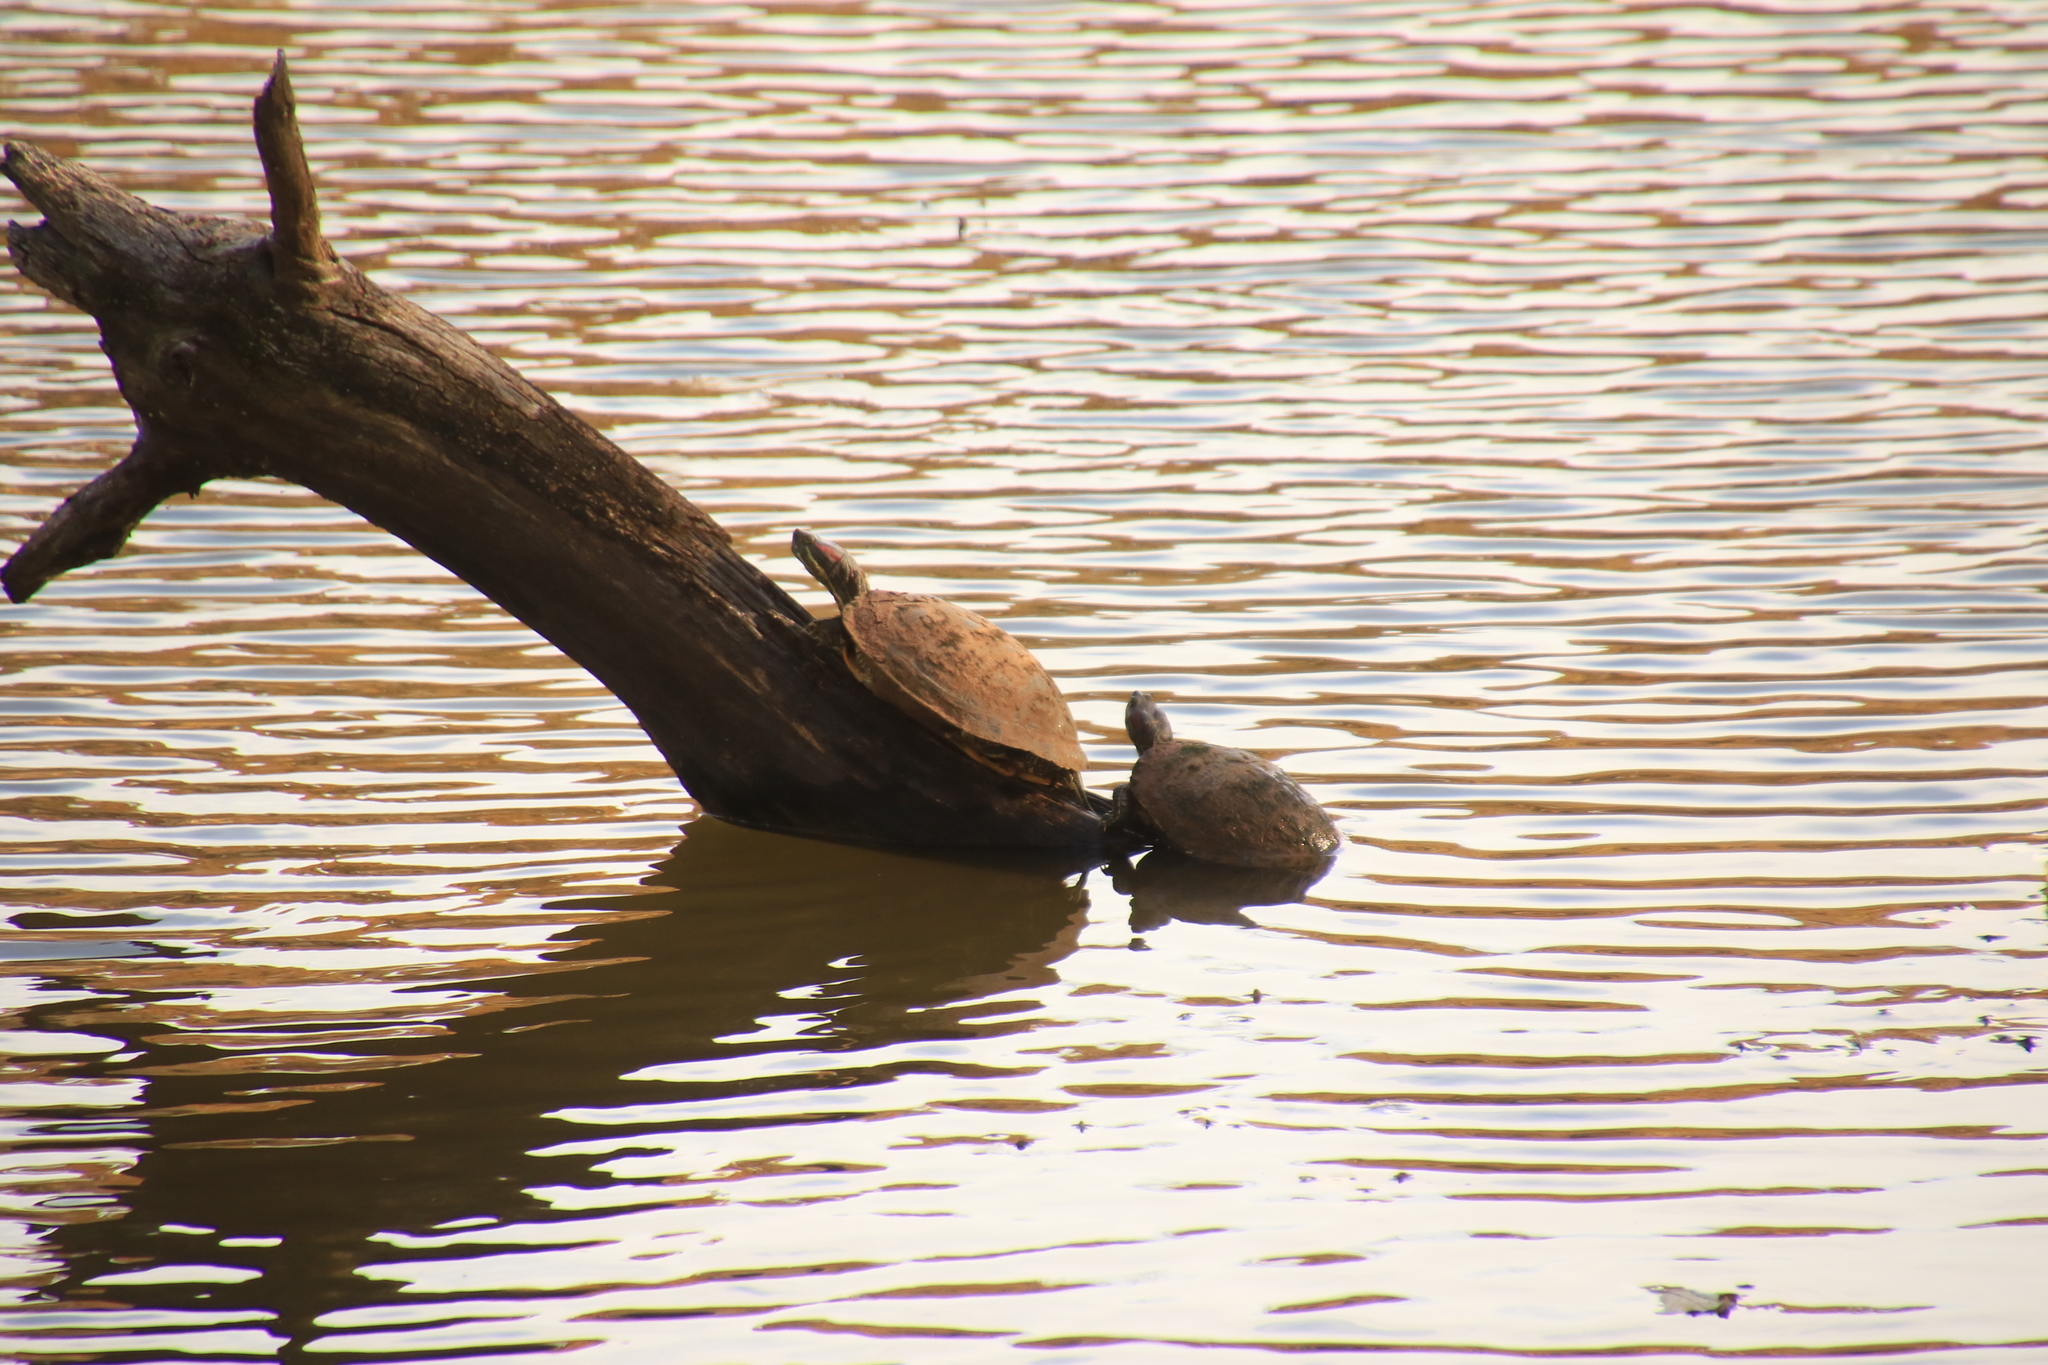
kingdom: Animalia
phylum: Chordata
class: Testudines
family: Emydidae
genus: Trachemys
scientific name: Trachemys scripta
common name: Slider
